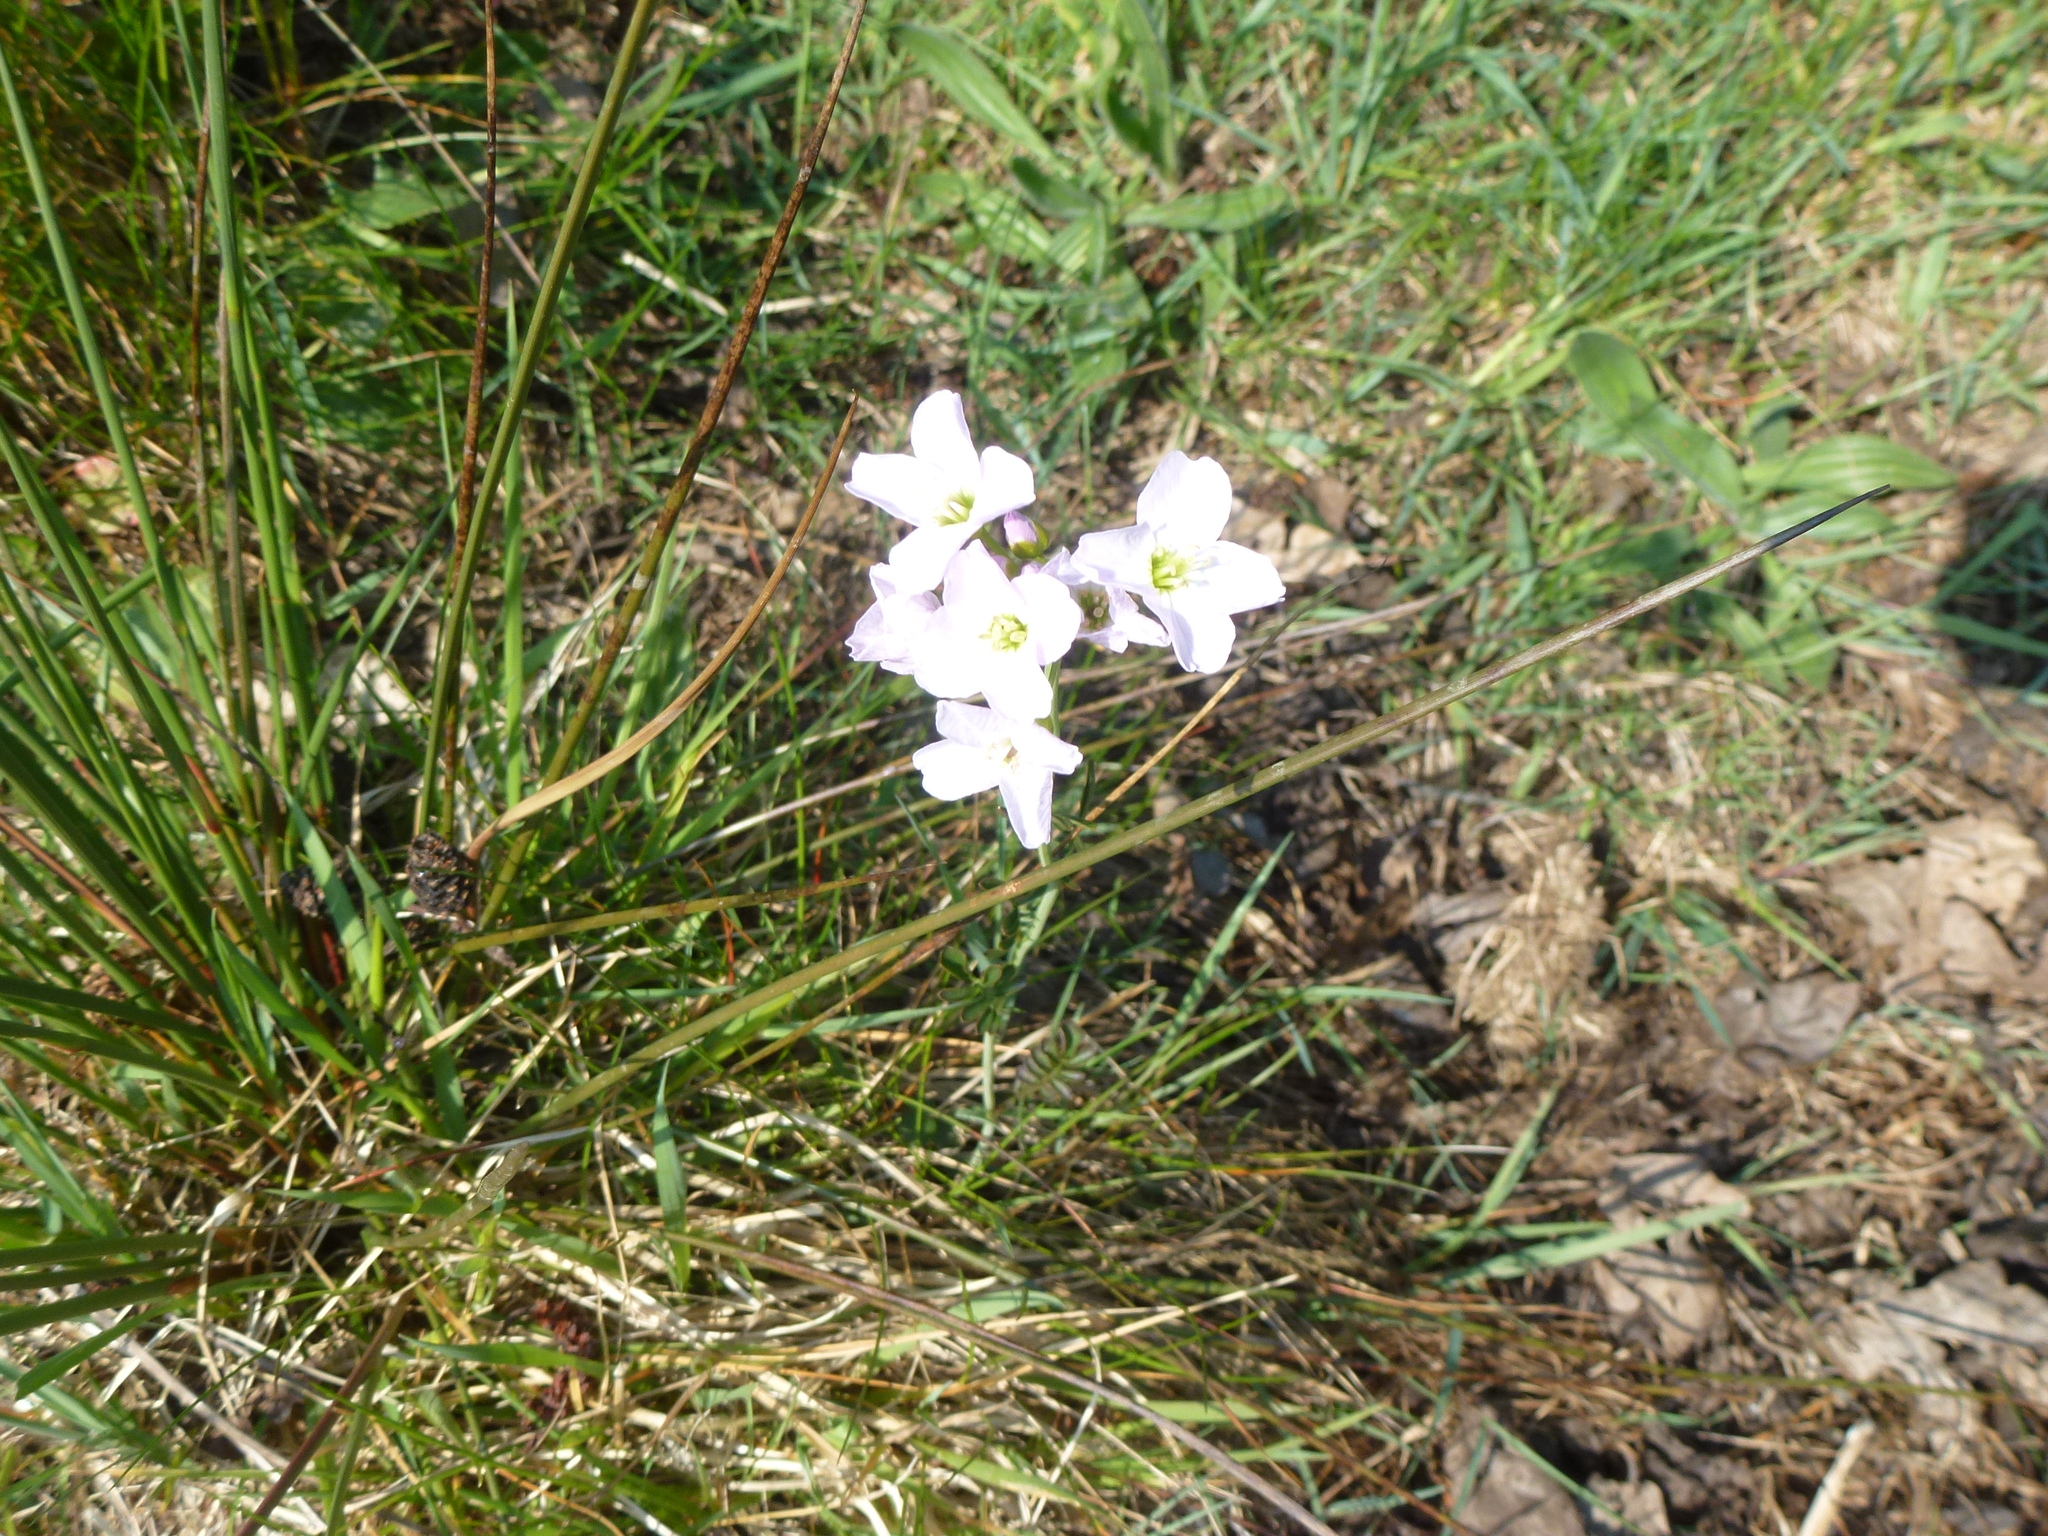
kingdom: Plantae
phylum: Tracheophyta
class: Magnoliopsida
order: Brassicales
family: Brassicaceae
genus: Cardamine
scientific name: Cardamine pratensis
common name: Cuckoo flower
